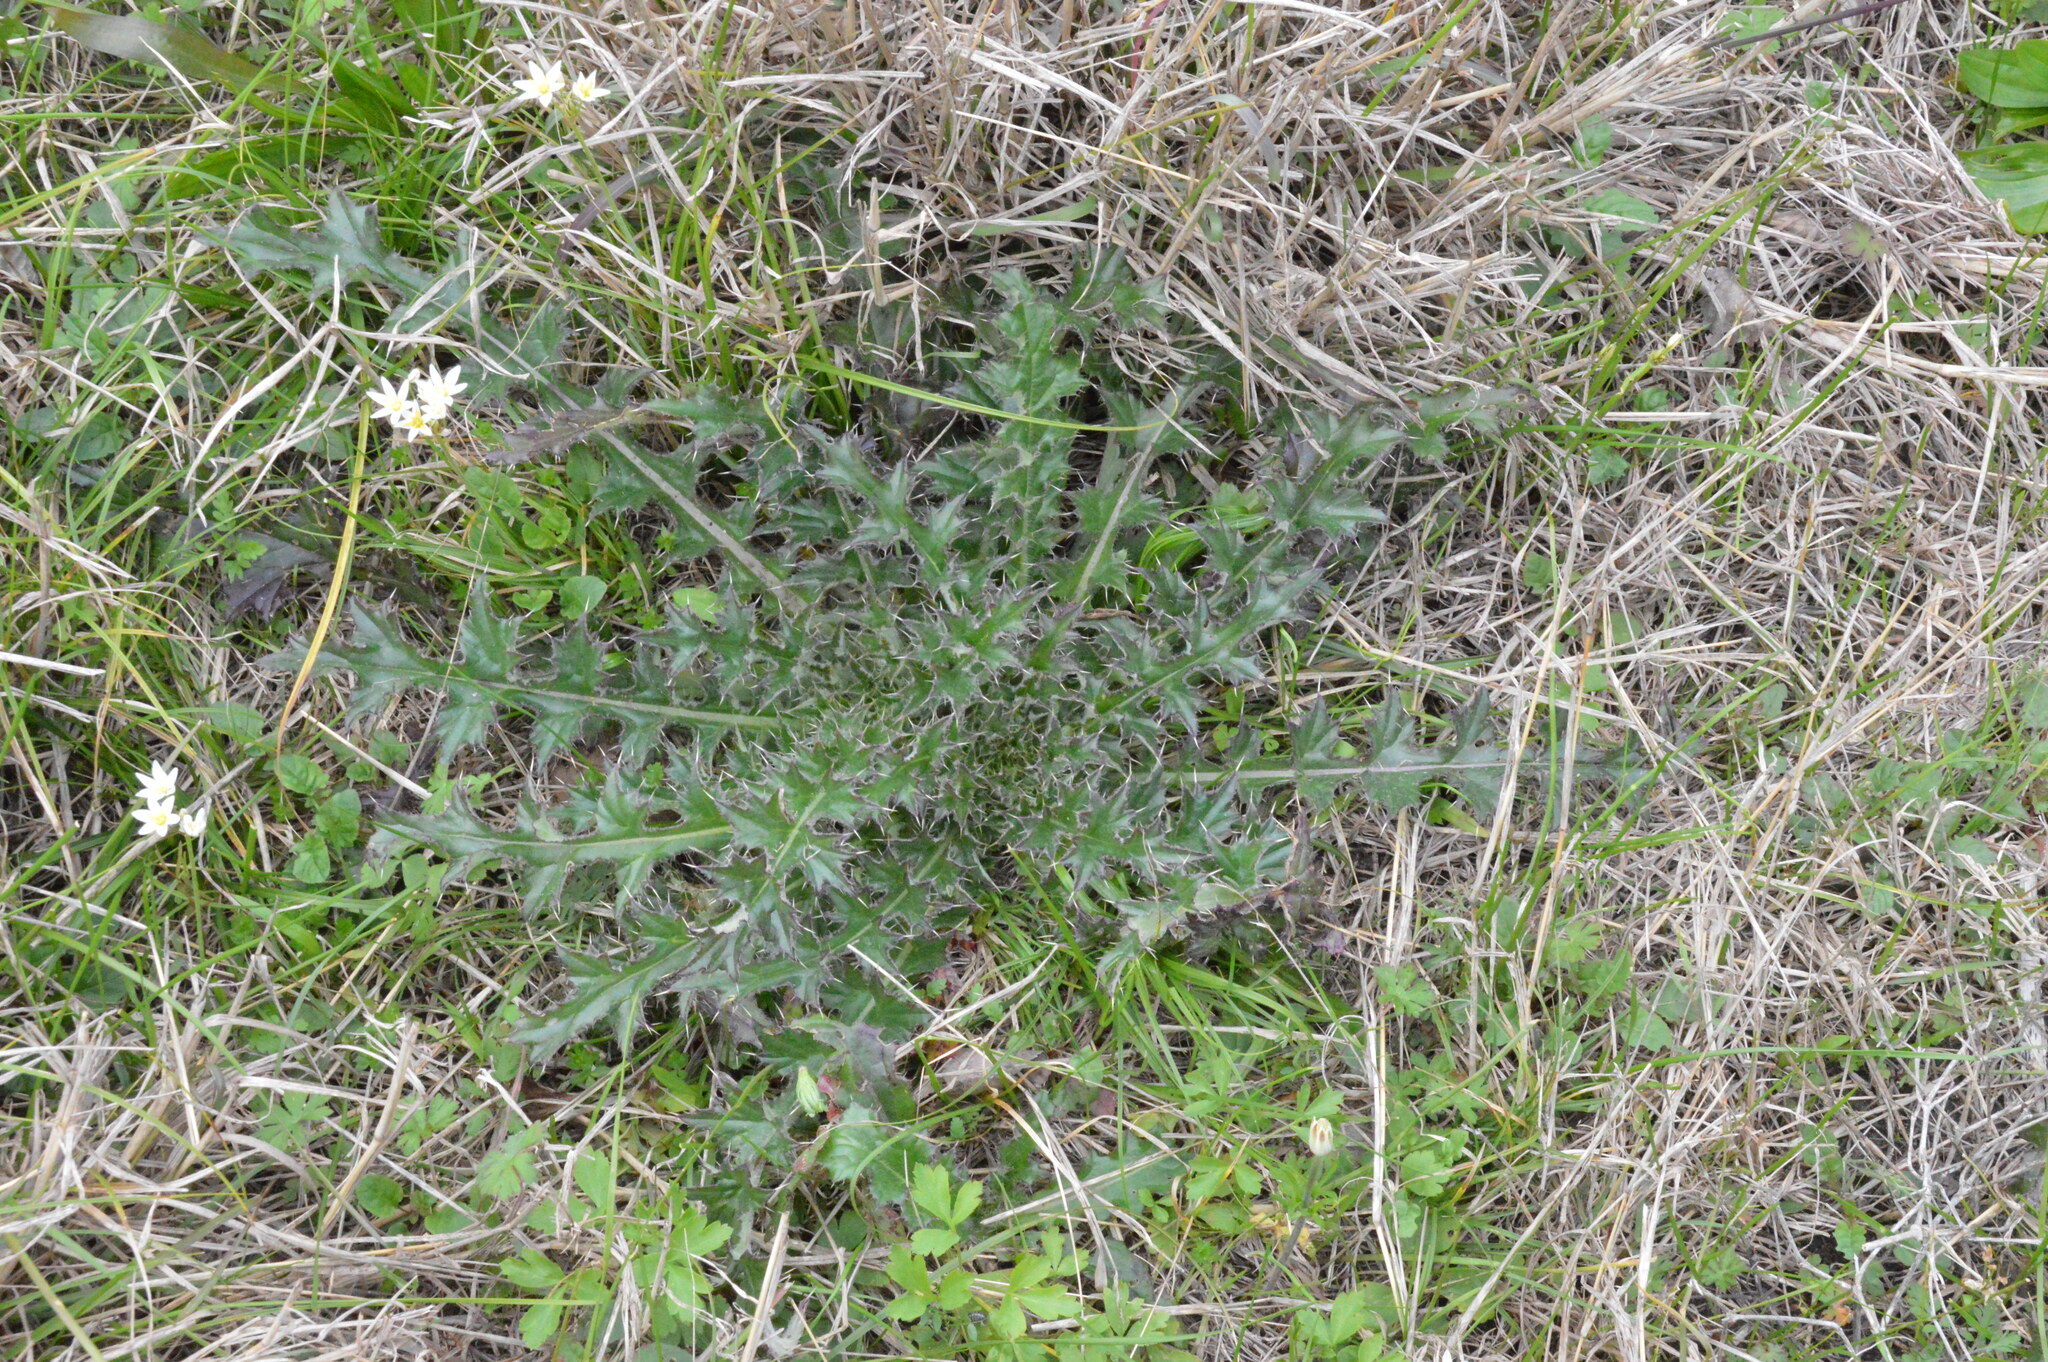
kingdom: Plantae
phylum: Tracheophyta
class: Magnoliopsida
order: Asterales
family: Asteraceae
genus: Cirsium
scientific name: Cirsium horridulum
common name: Bristly thistle
